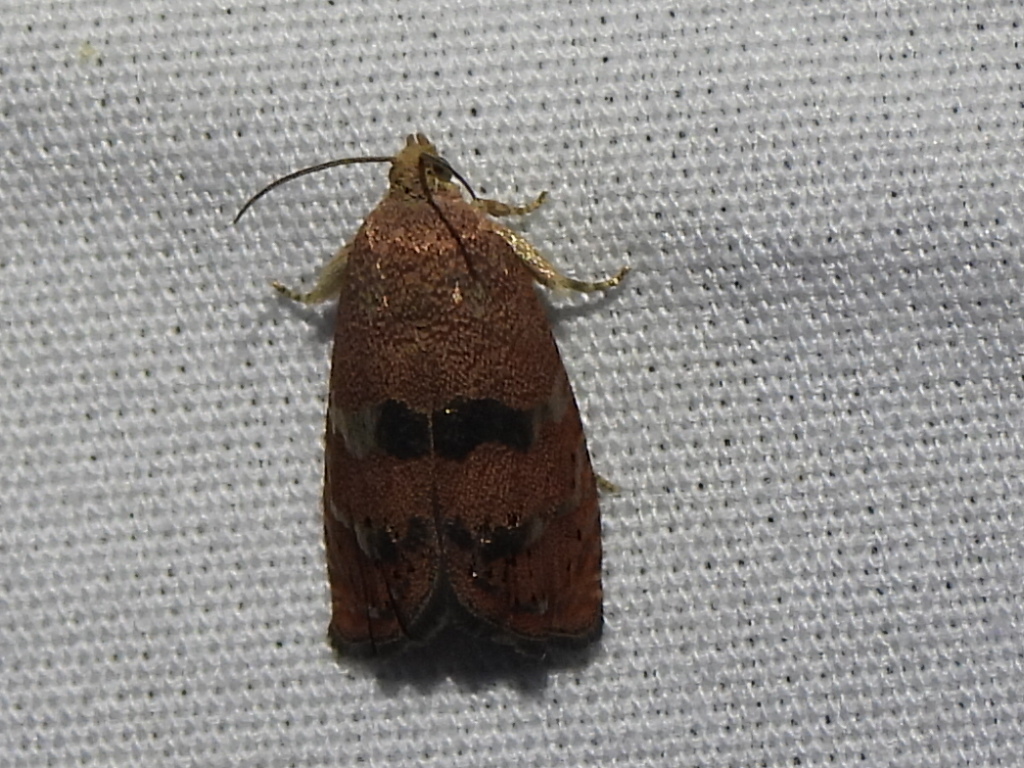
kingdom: Animalia
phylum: Arthropoda
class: Insecta
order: Lepidoptera
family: Tortricidae
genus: Cydia
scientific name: Cydia latiferreana
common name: Filbertworm moth
